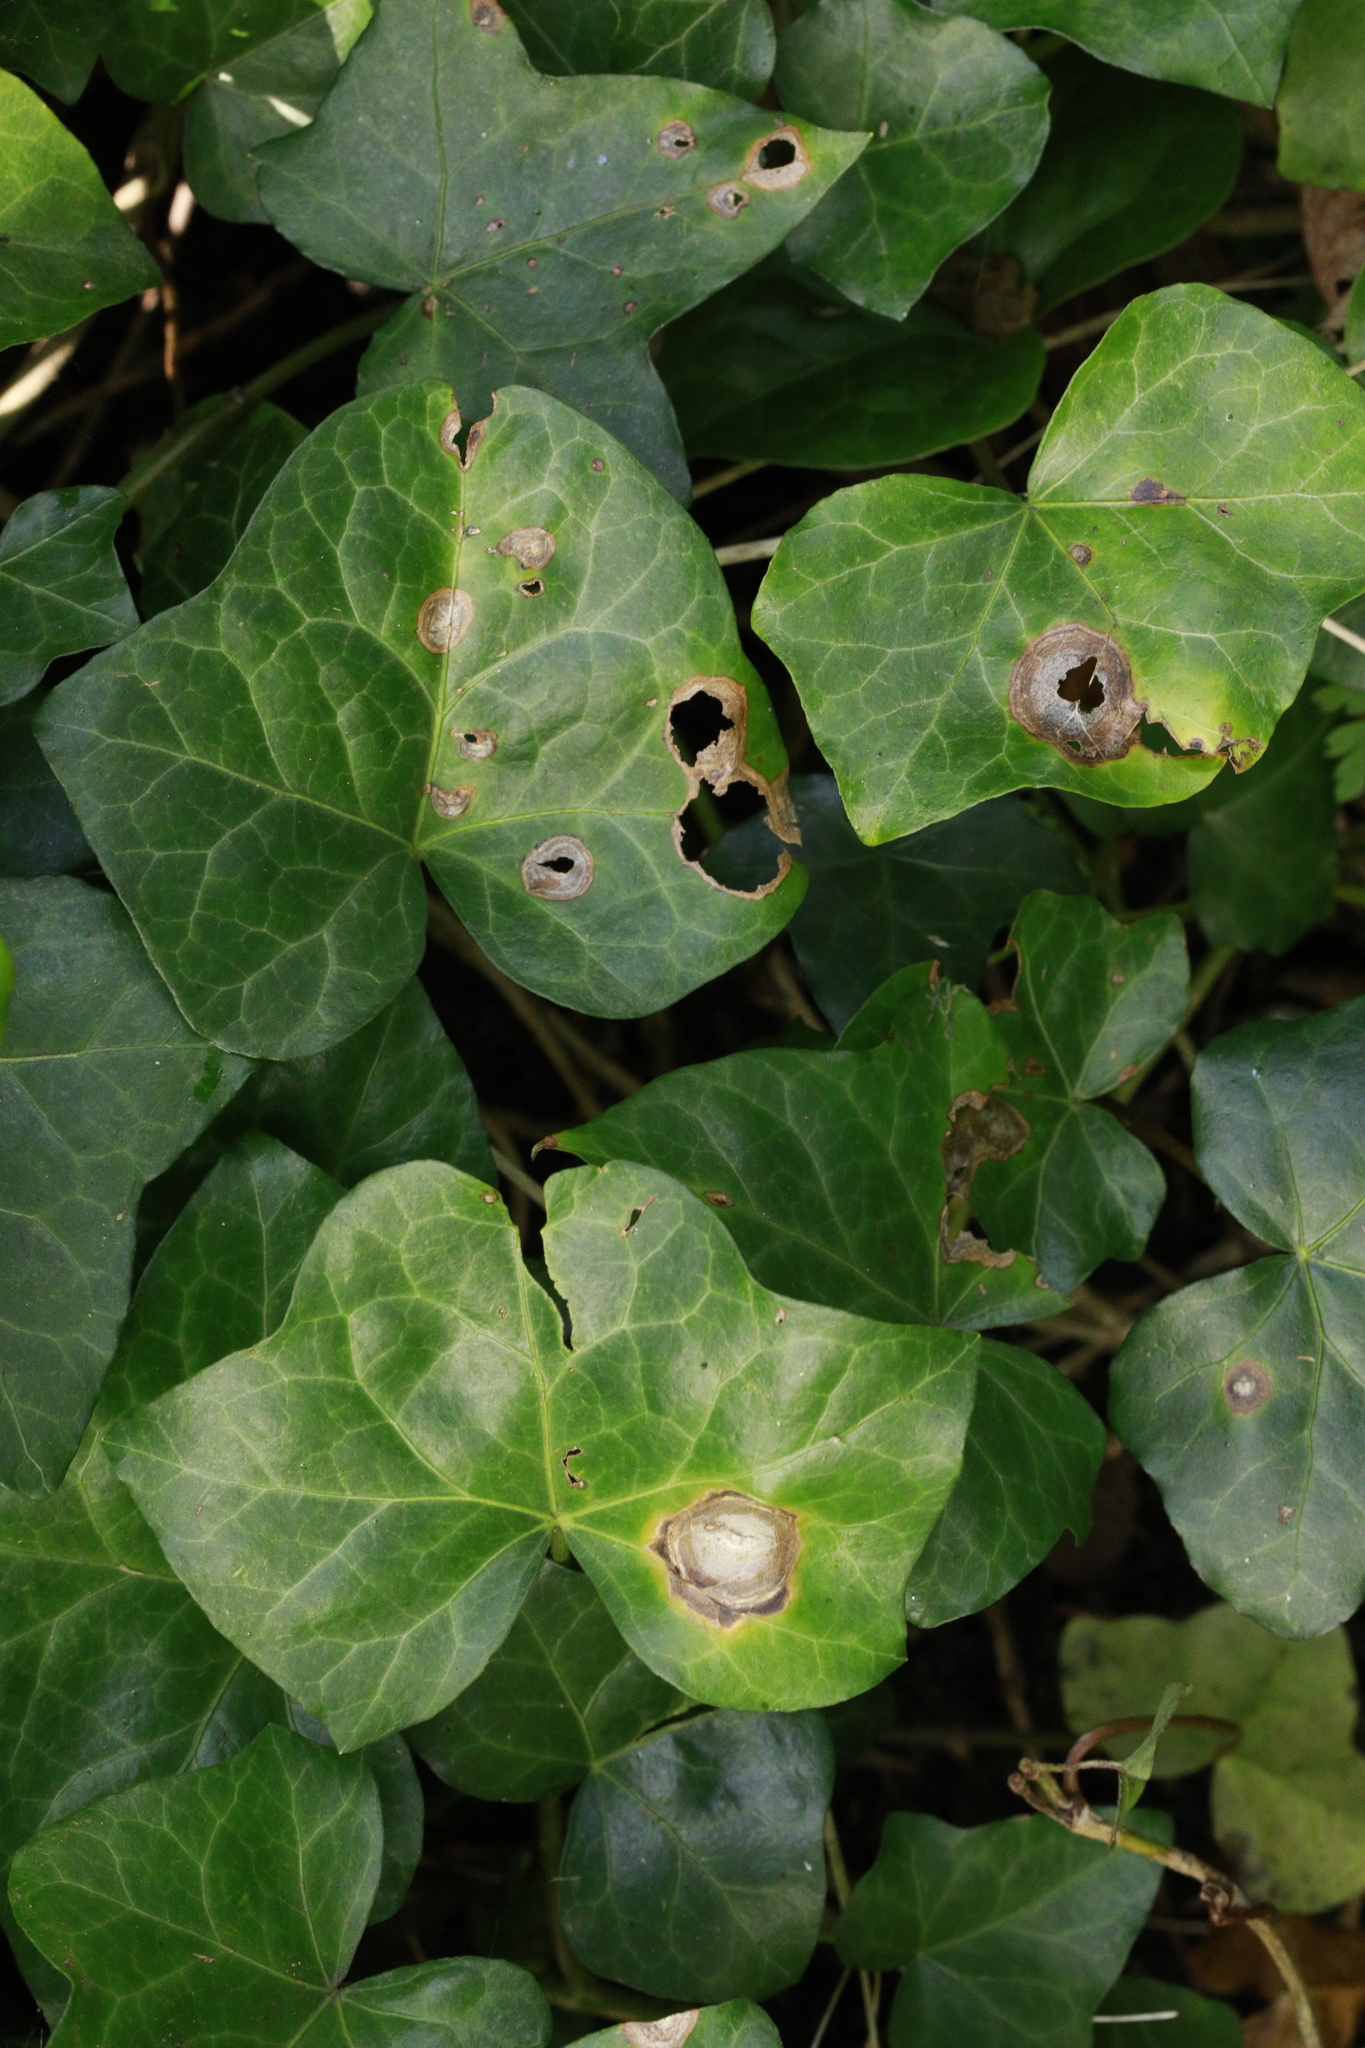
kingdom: Plantae
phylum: Tracheophyta
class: Magnoliopsida
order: Apiales
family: Araliaceae
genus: Hedera
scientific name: Hedera helix
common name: Ivy
